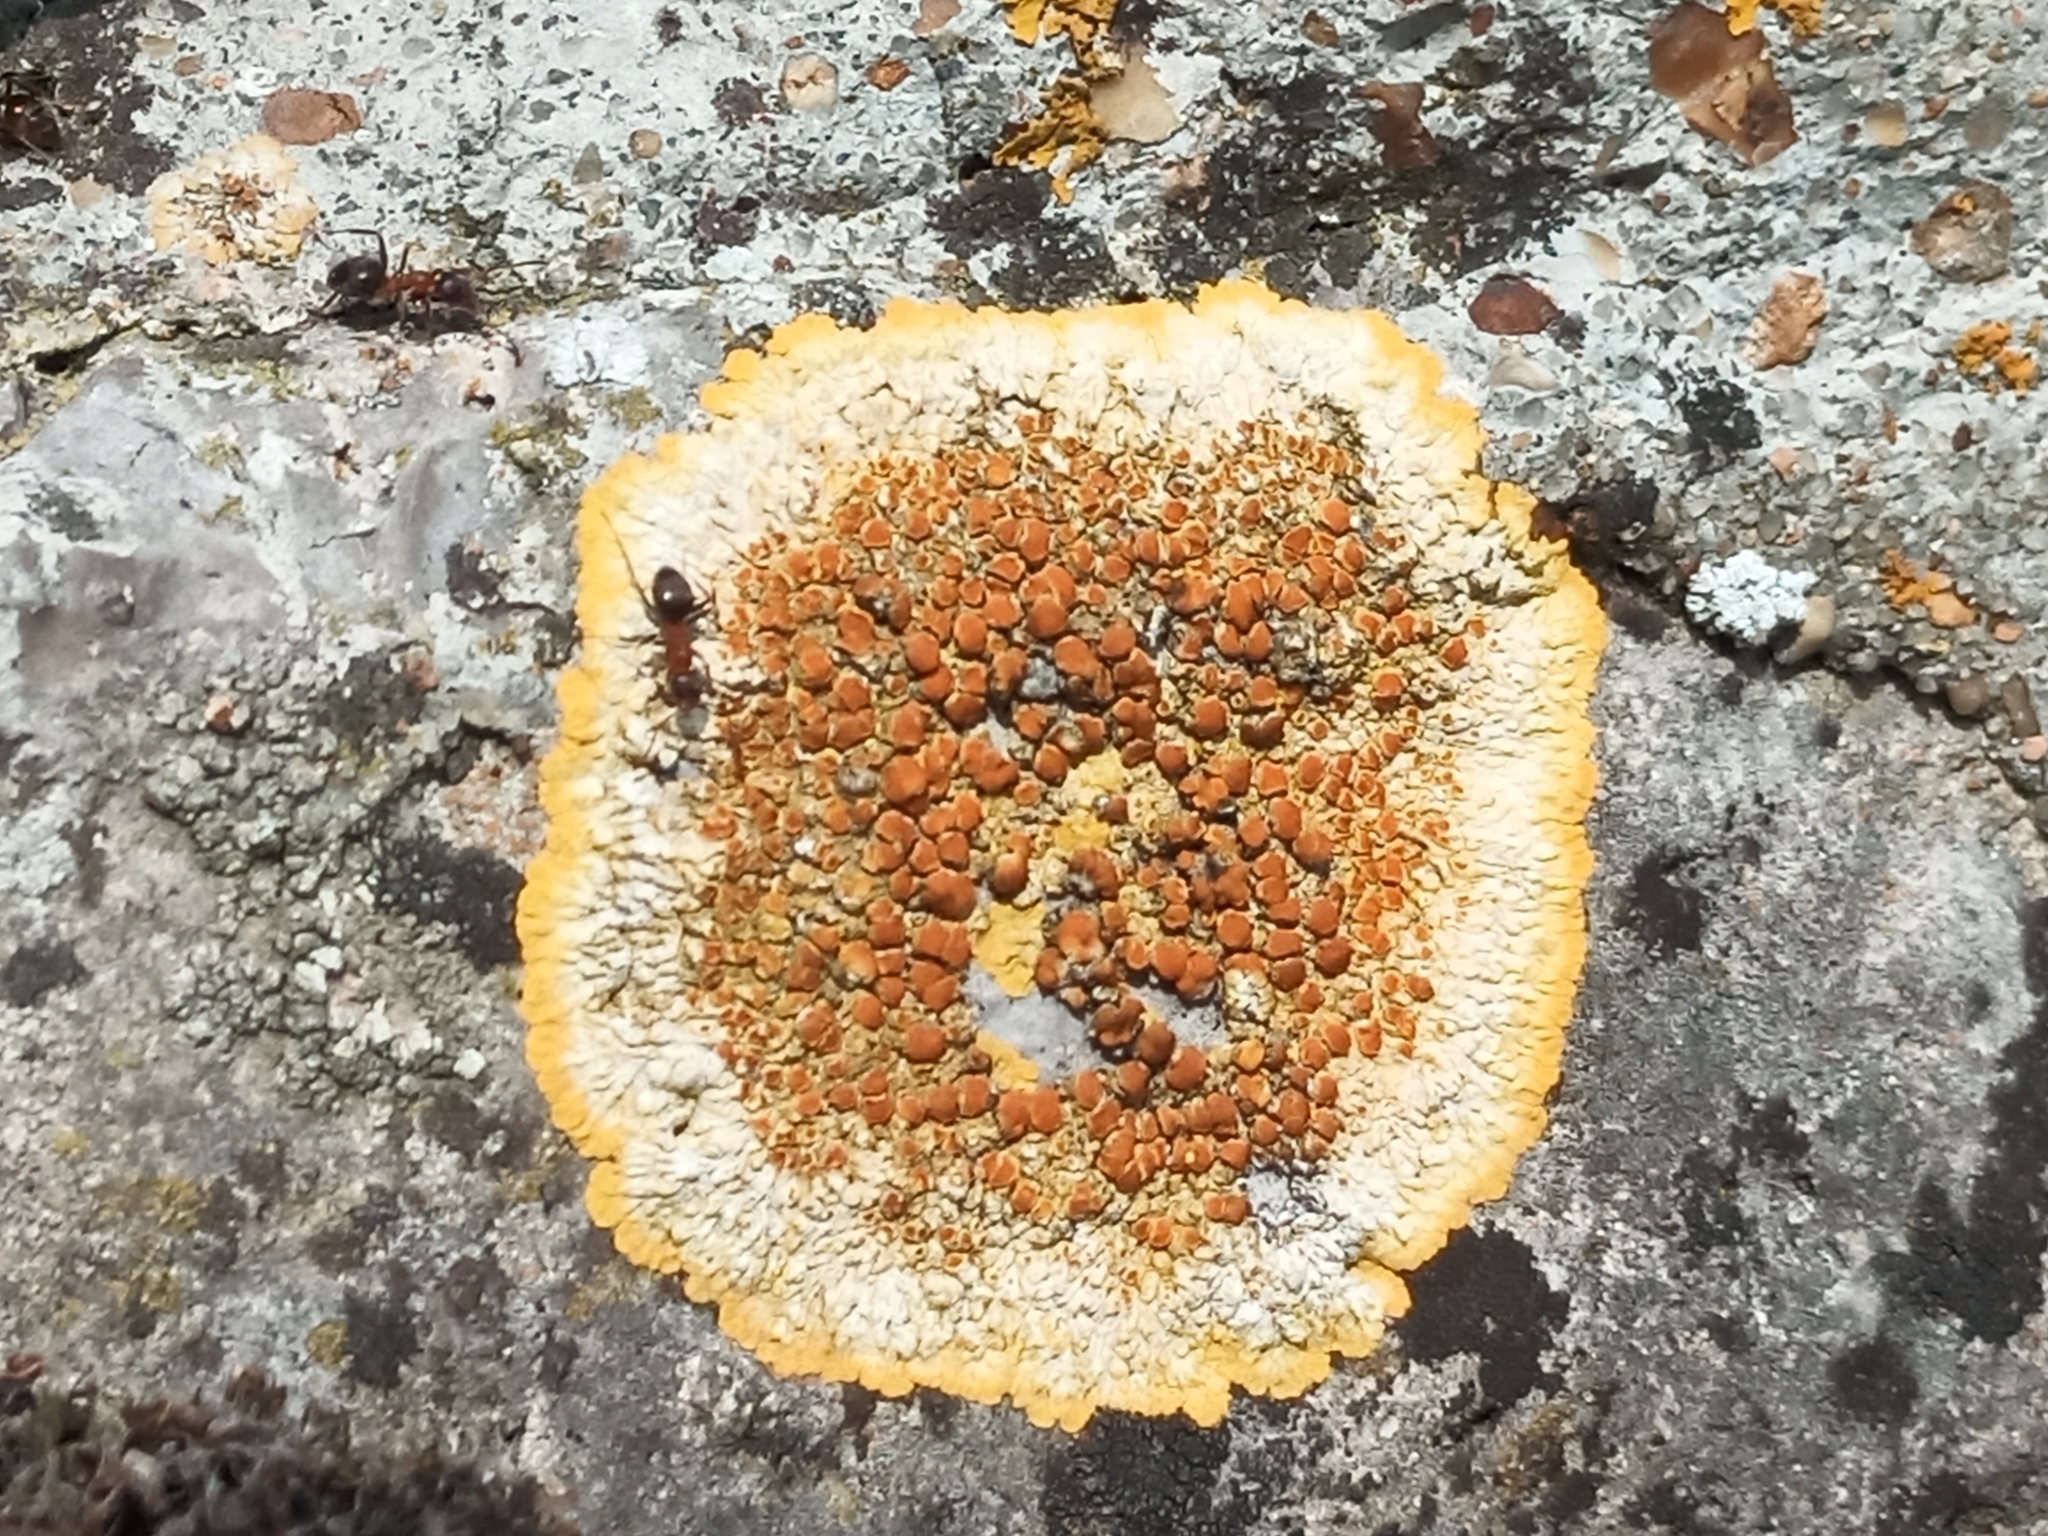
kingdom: Fungi
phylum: Ascomycota
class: Lecanoromycetes
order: Teloschistales
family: Teloschistaceae
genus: Variospora
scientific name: Variospora aurantia
